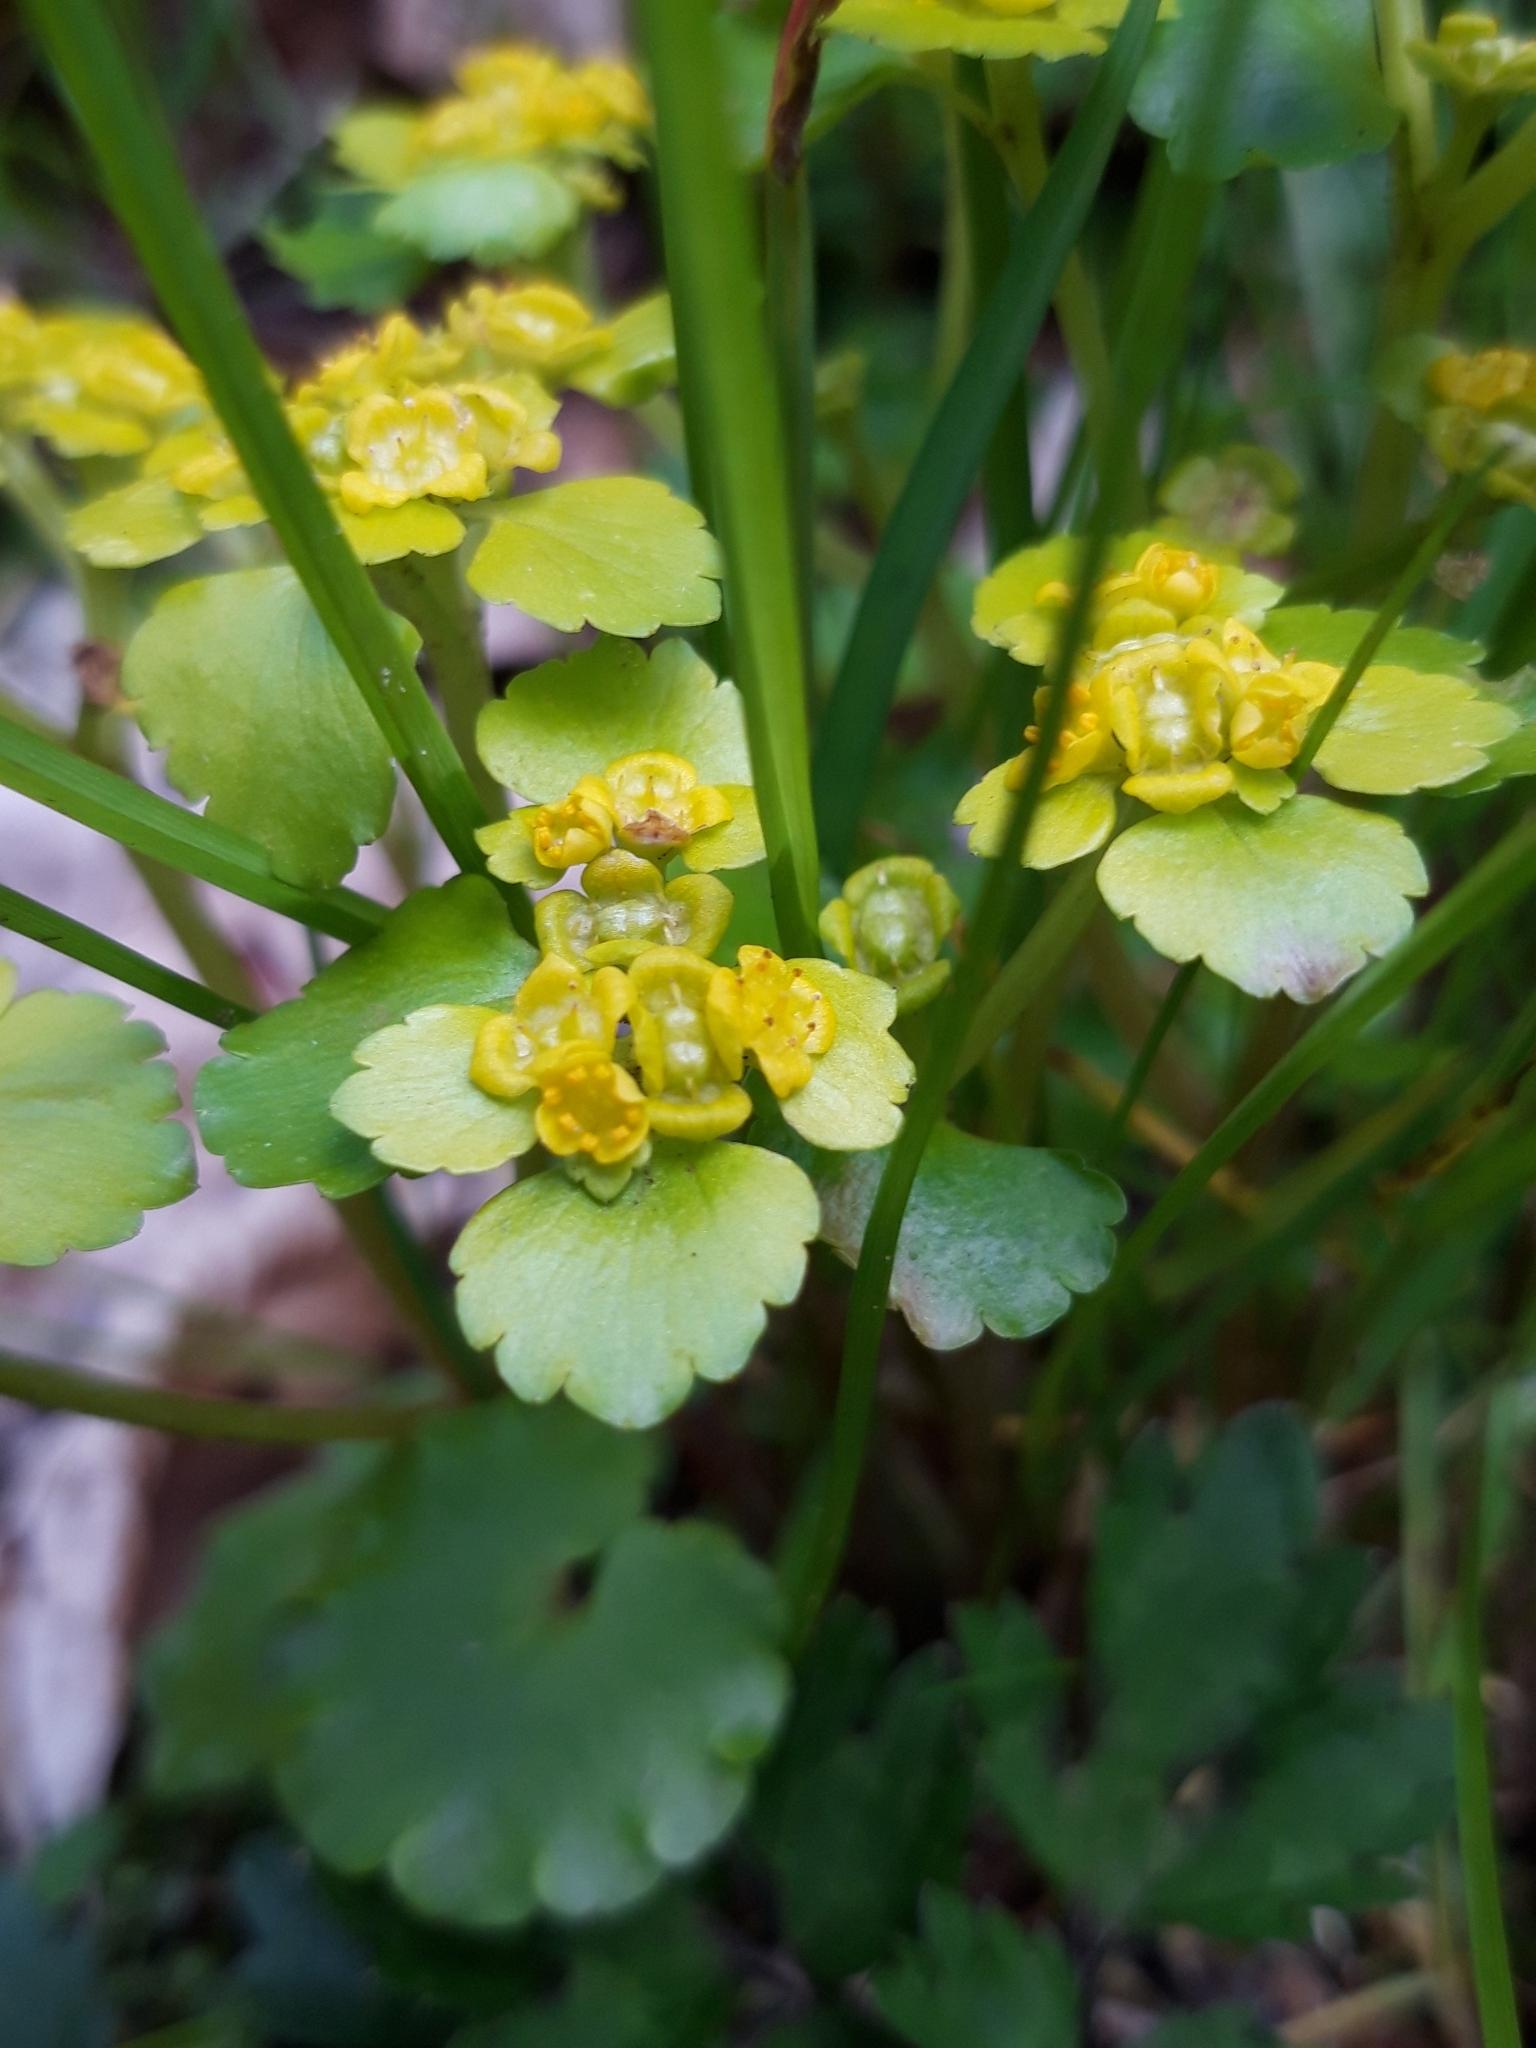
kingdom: Plantae
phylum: Tracheophyta
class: Magnoliopsida
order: Saxifragales
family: Saxifragaceae
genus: Chrysosplenium
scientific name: Chrysosplenium alternifolium
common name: Alternate-leaved golden-saxifrage
